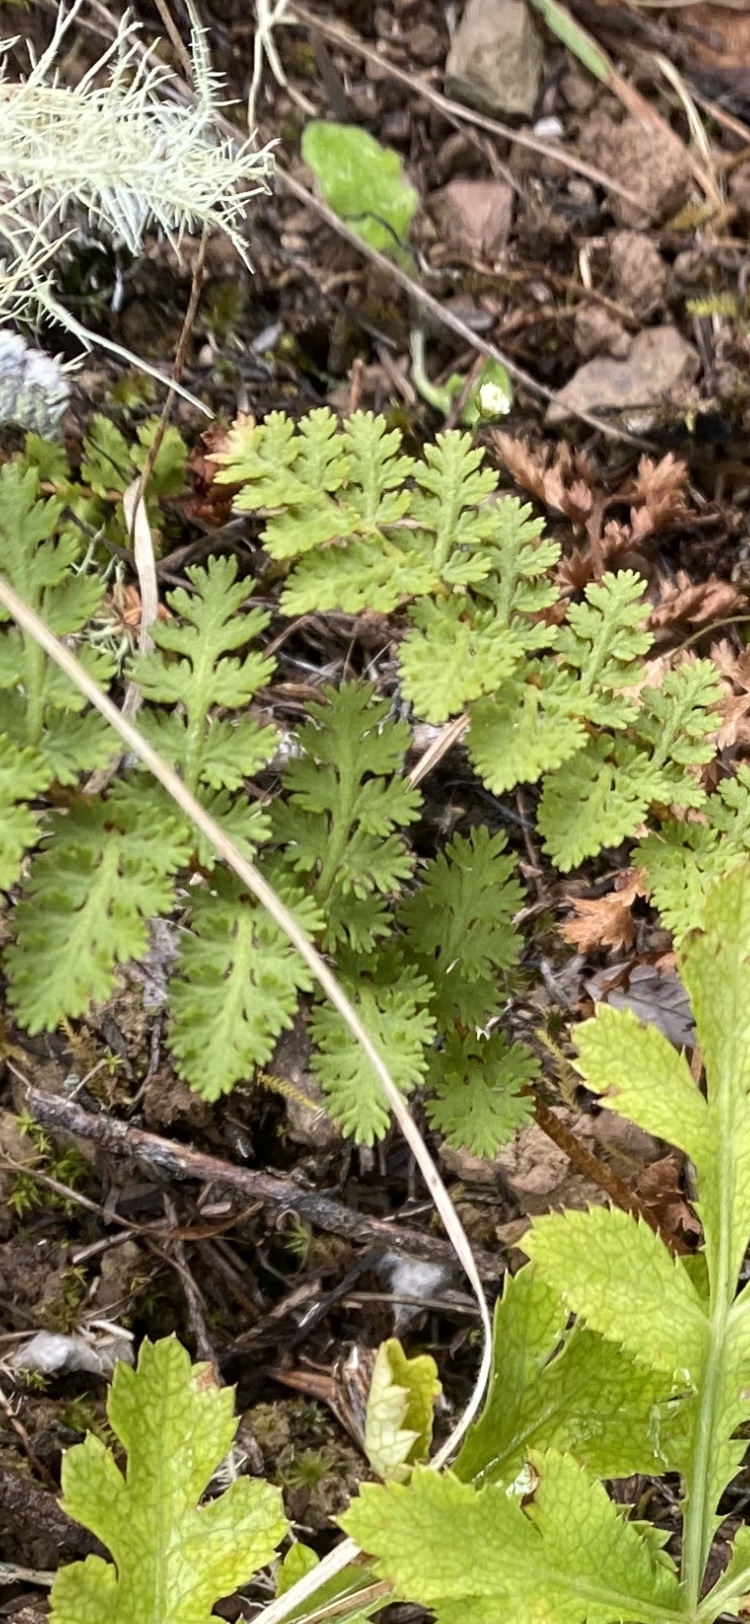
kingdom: Plantae
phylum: Tracheophyta
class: Polypodiopsida
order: Schizaeales
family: Anemiaceae
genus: Anemia
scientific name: Anemia caffrorum
